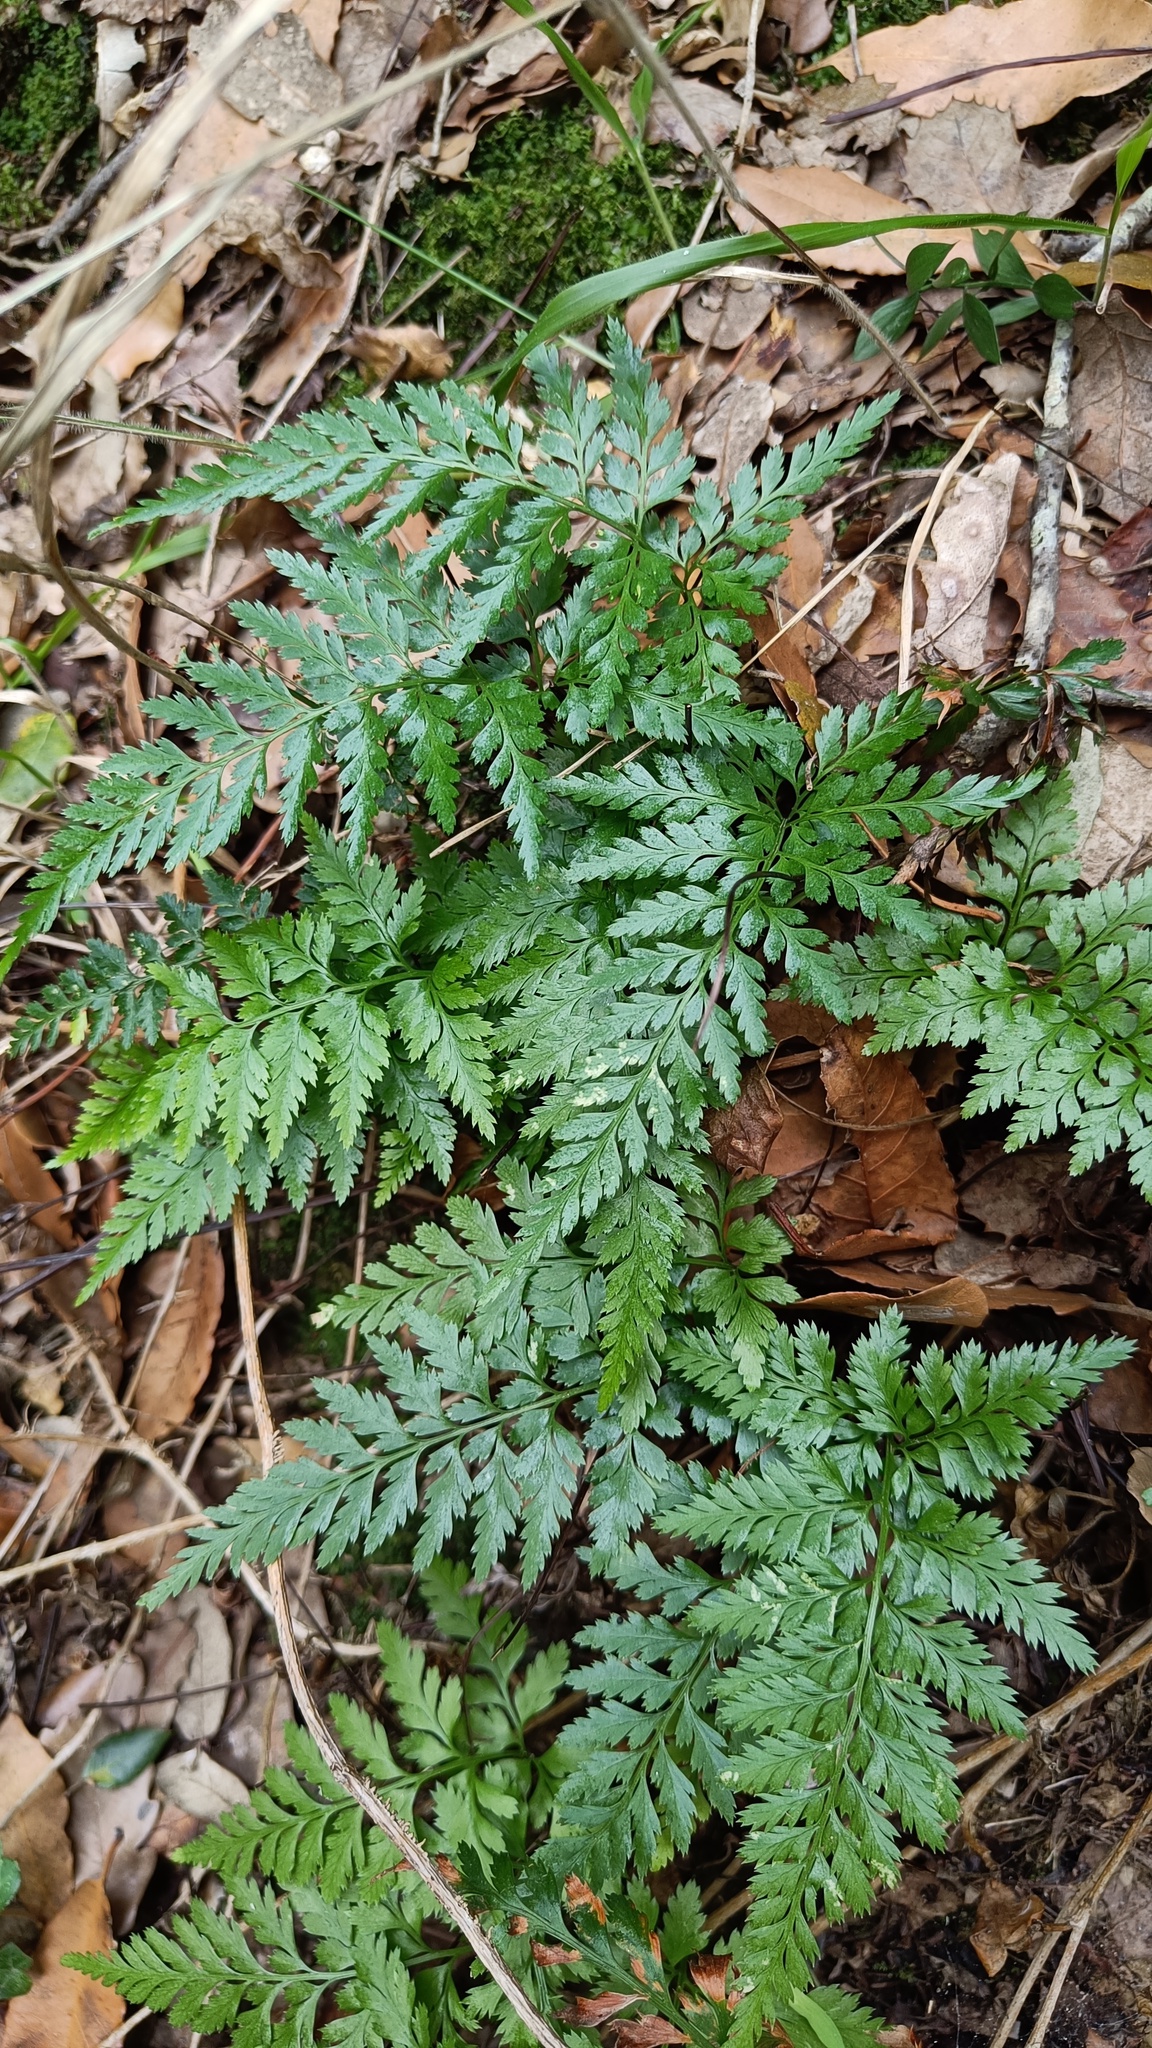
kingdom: Plantae
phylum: Tracheophyta
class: Polypodiopsida
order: Polypodiales
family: Aspleniaceae
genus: Asplenium
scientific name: Asplenium onopteris
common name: Irish spleenwort
